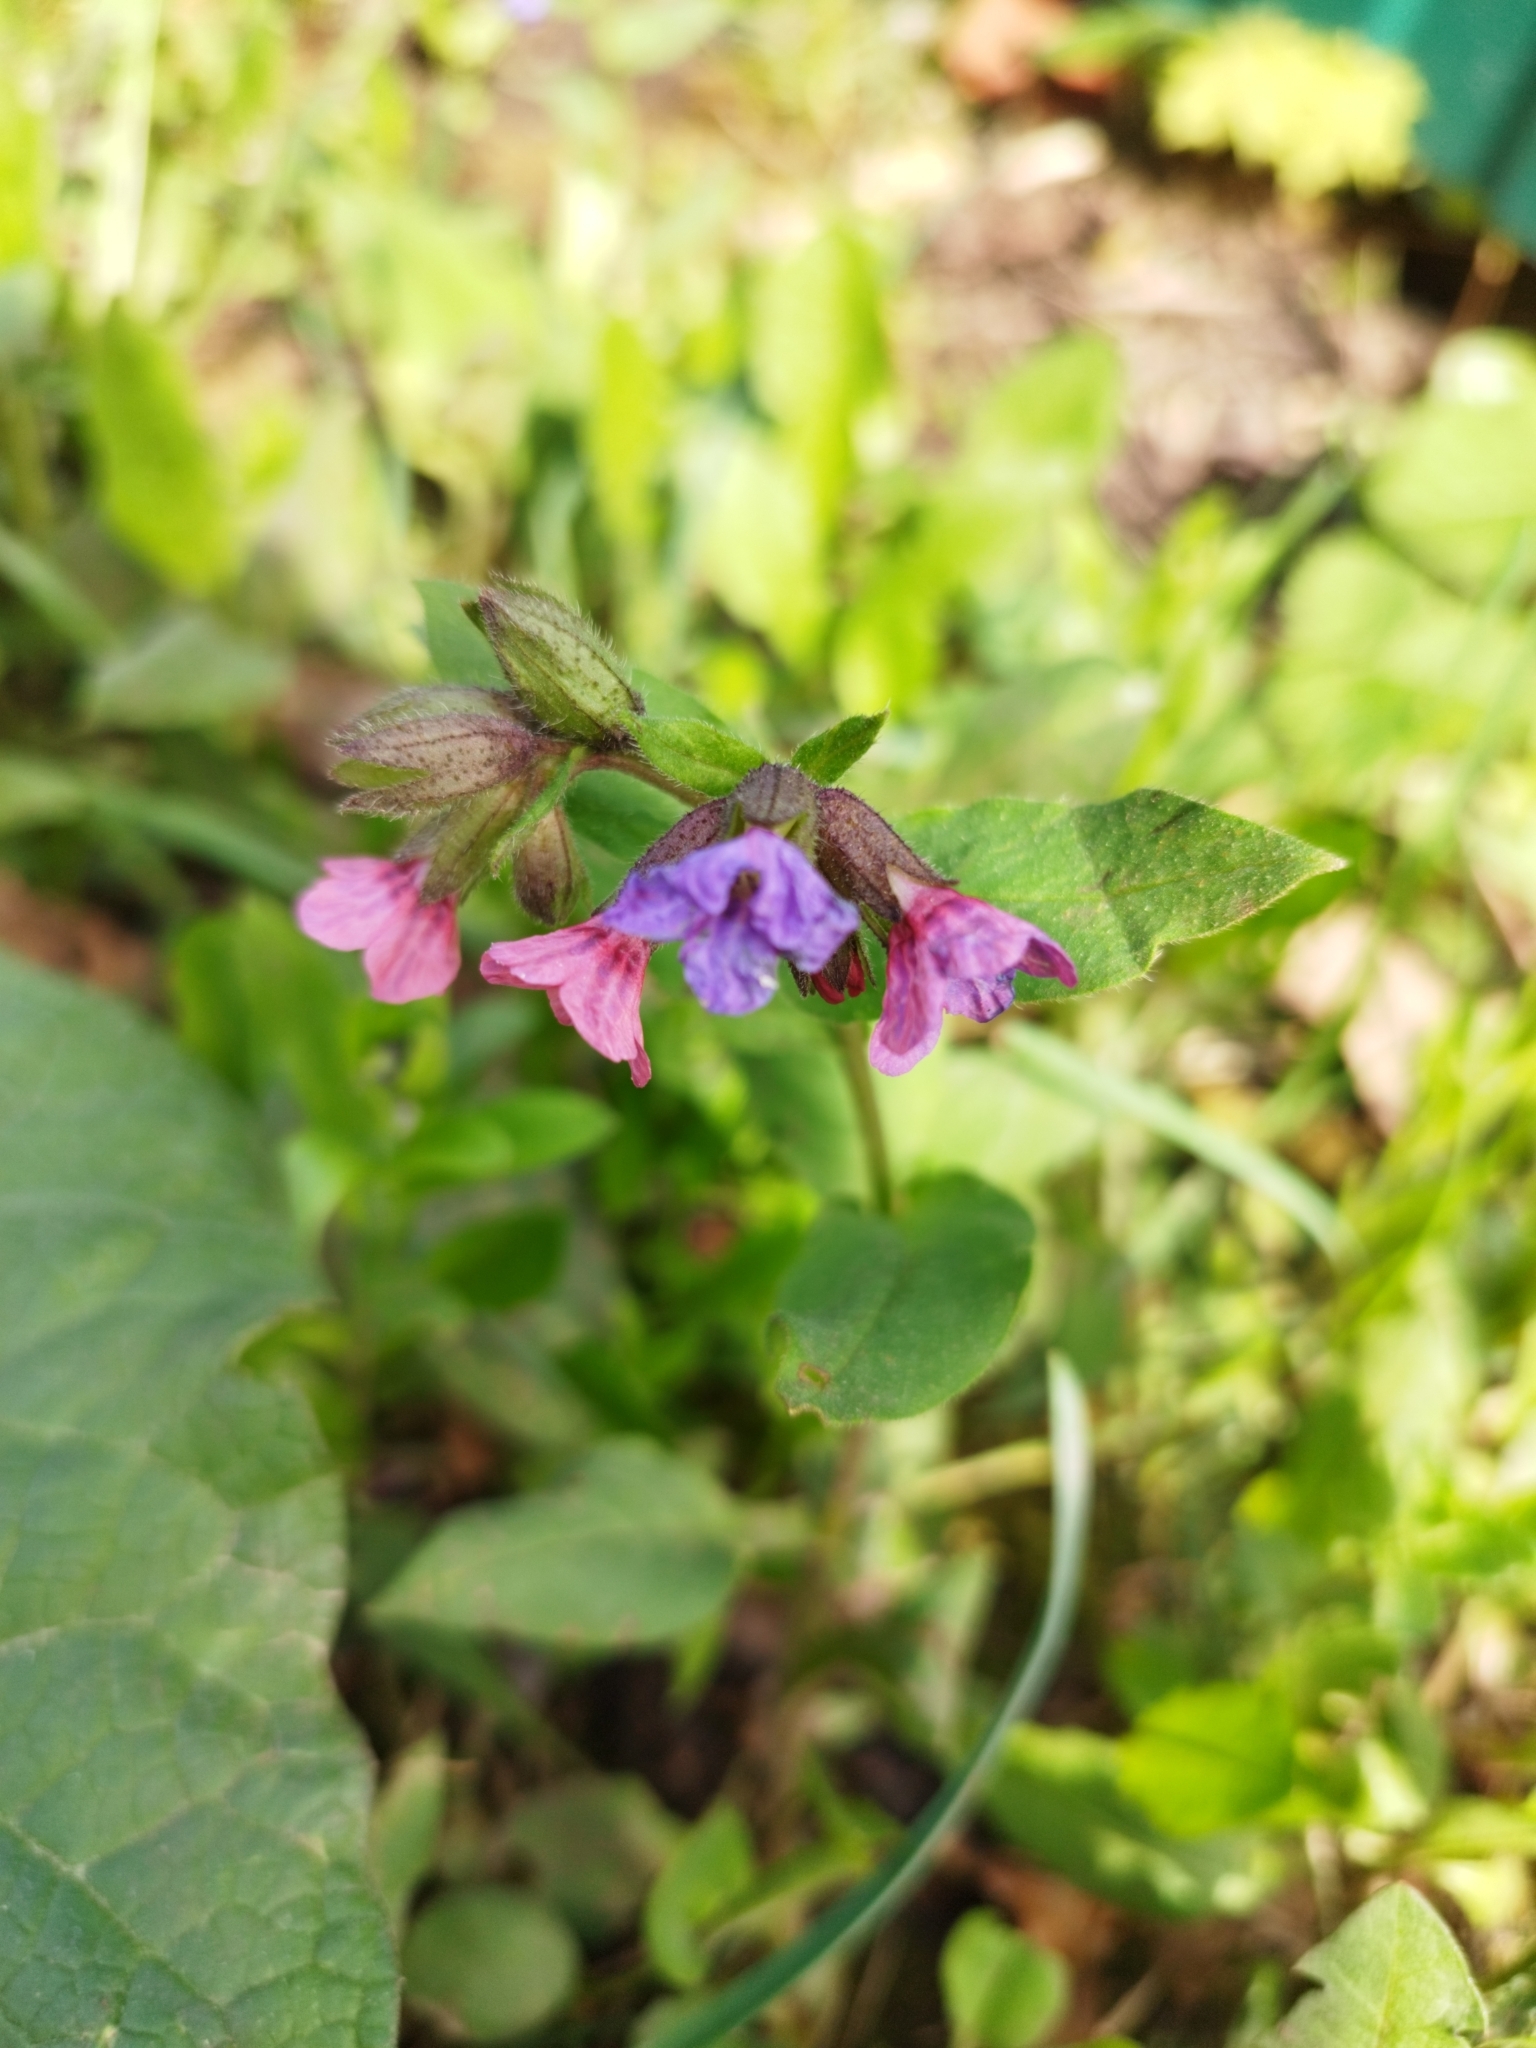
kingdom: Plantae
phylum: Tracheophyta
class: Magnoliopsida
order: Boraginales
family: Boraginaceae
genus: Pulmonaria
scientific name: Pulmonaria obscura
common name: Suffolk lungwort
